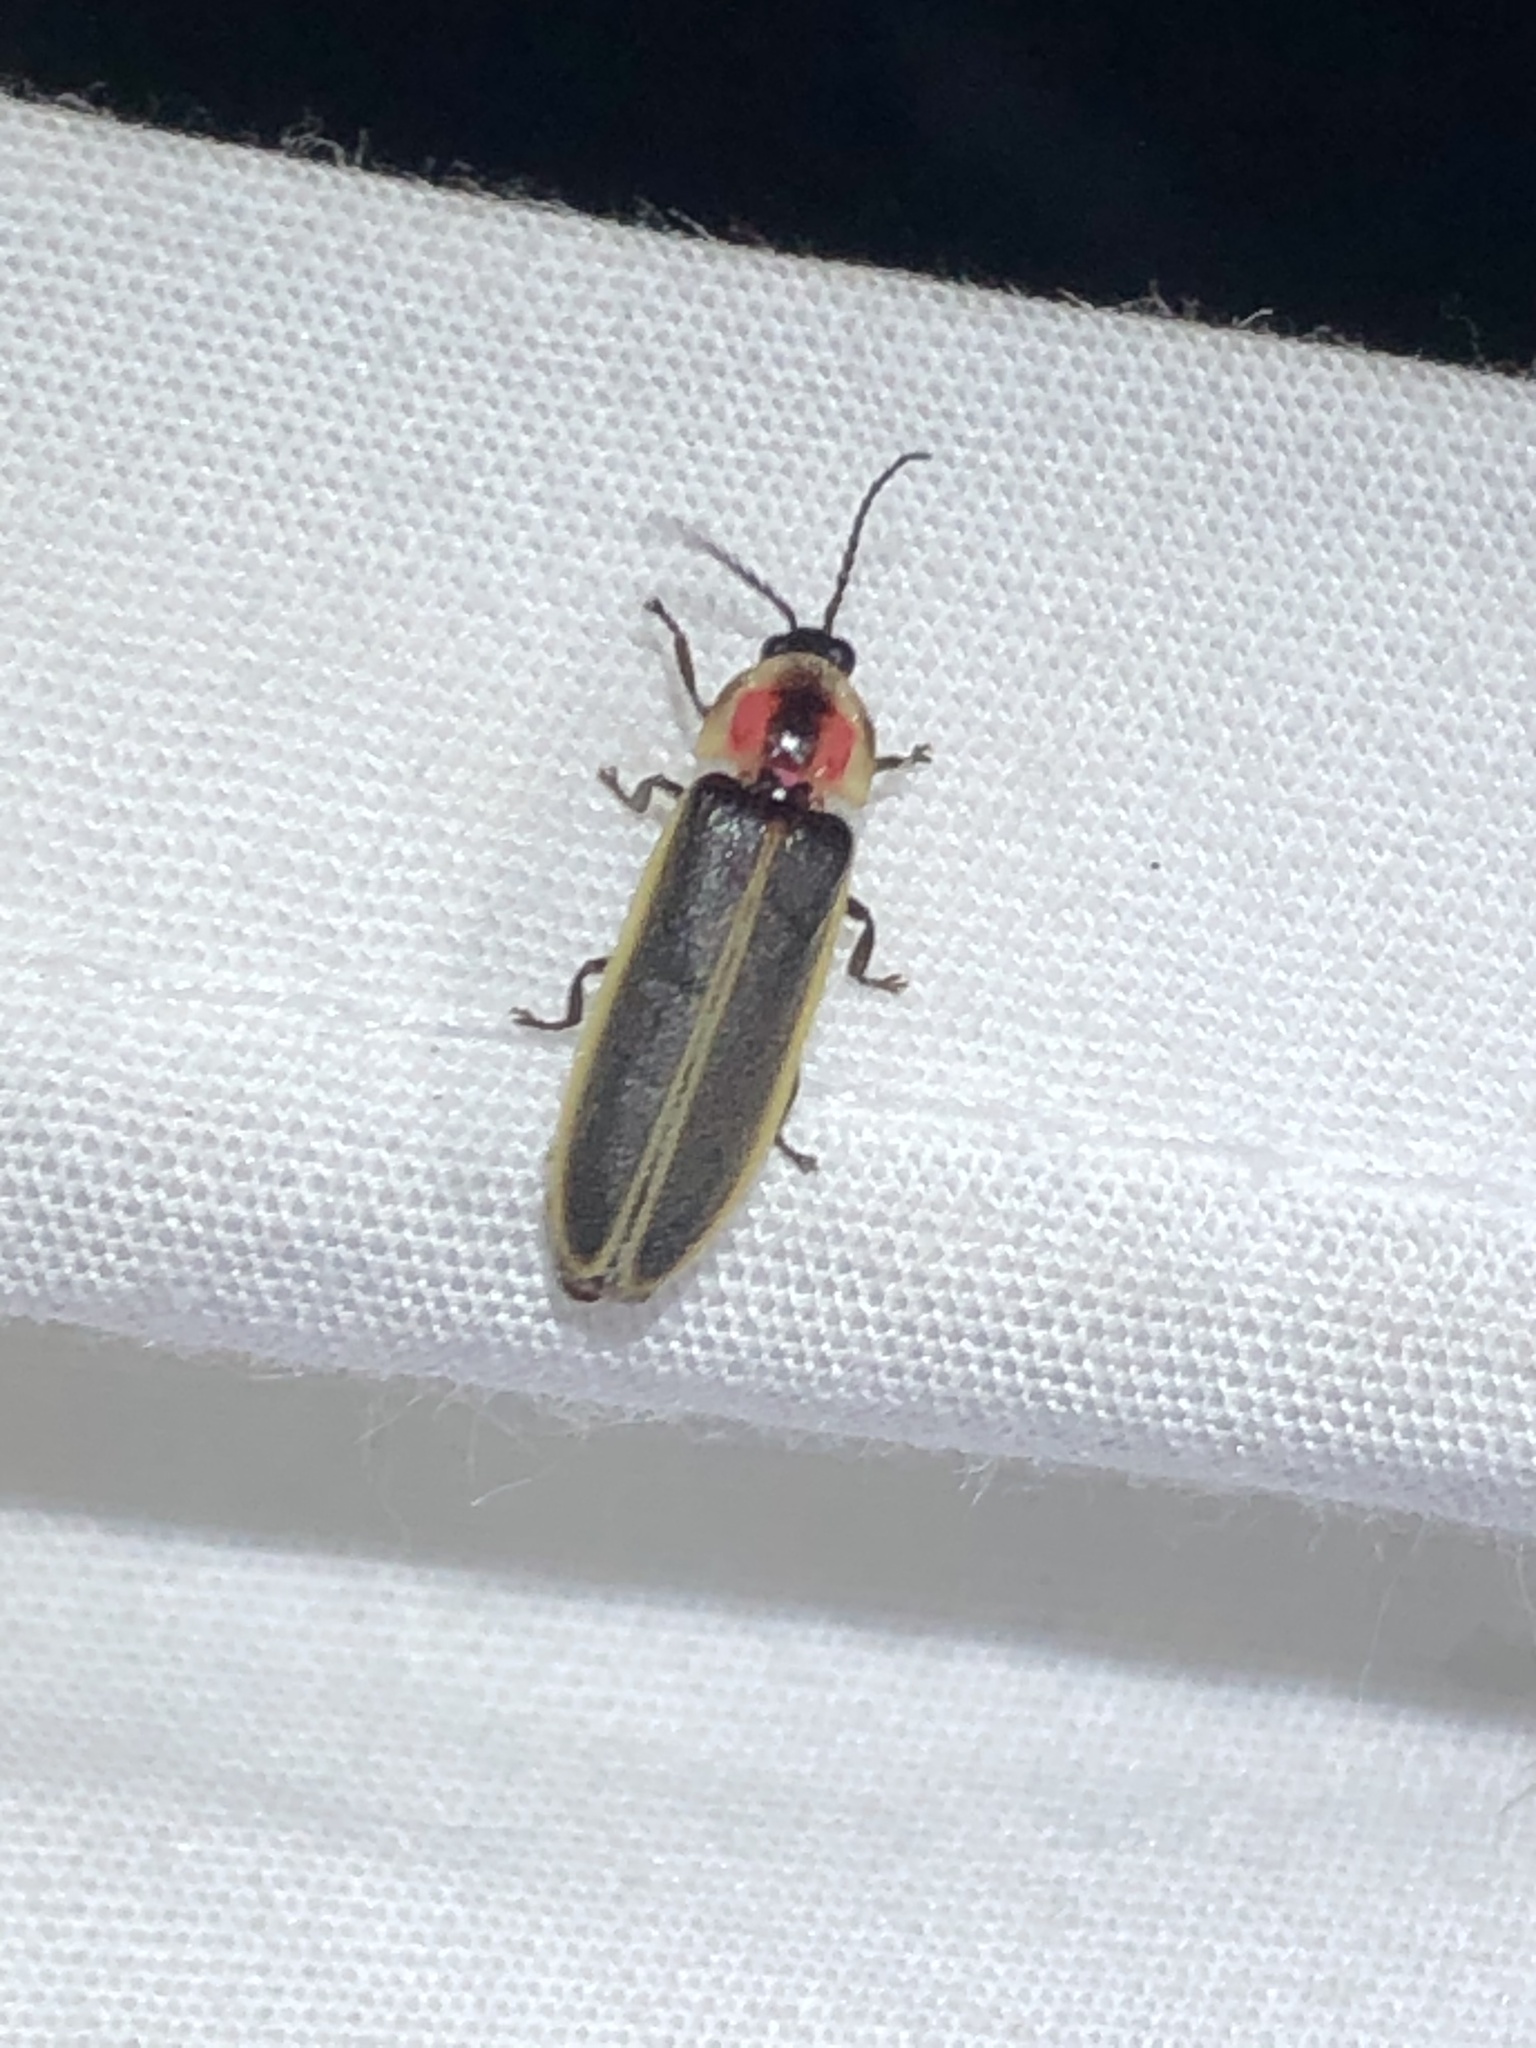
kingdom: Animalia
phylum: Arthropoda
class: Insecta
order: Coleoptera
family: Lampyridae
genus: Photinus
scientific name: Photinus knulli
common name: Fall southwest firefly
